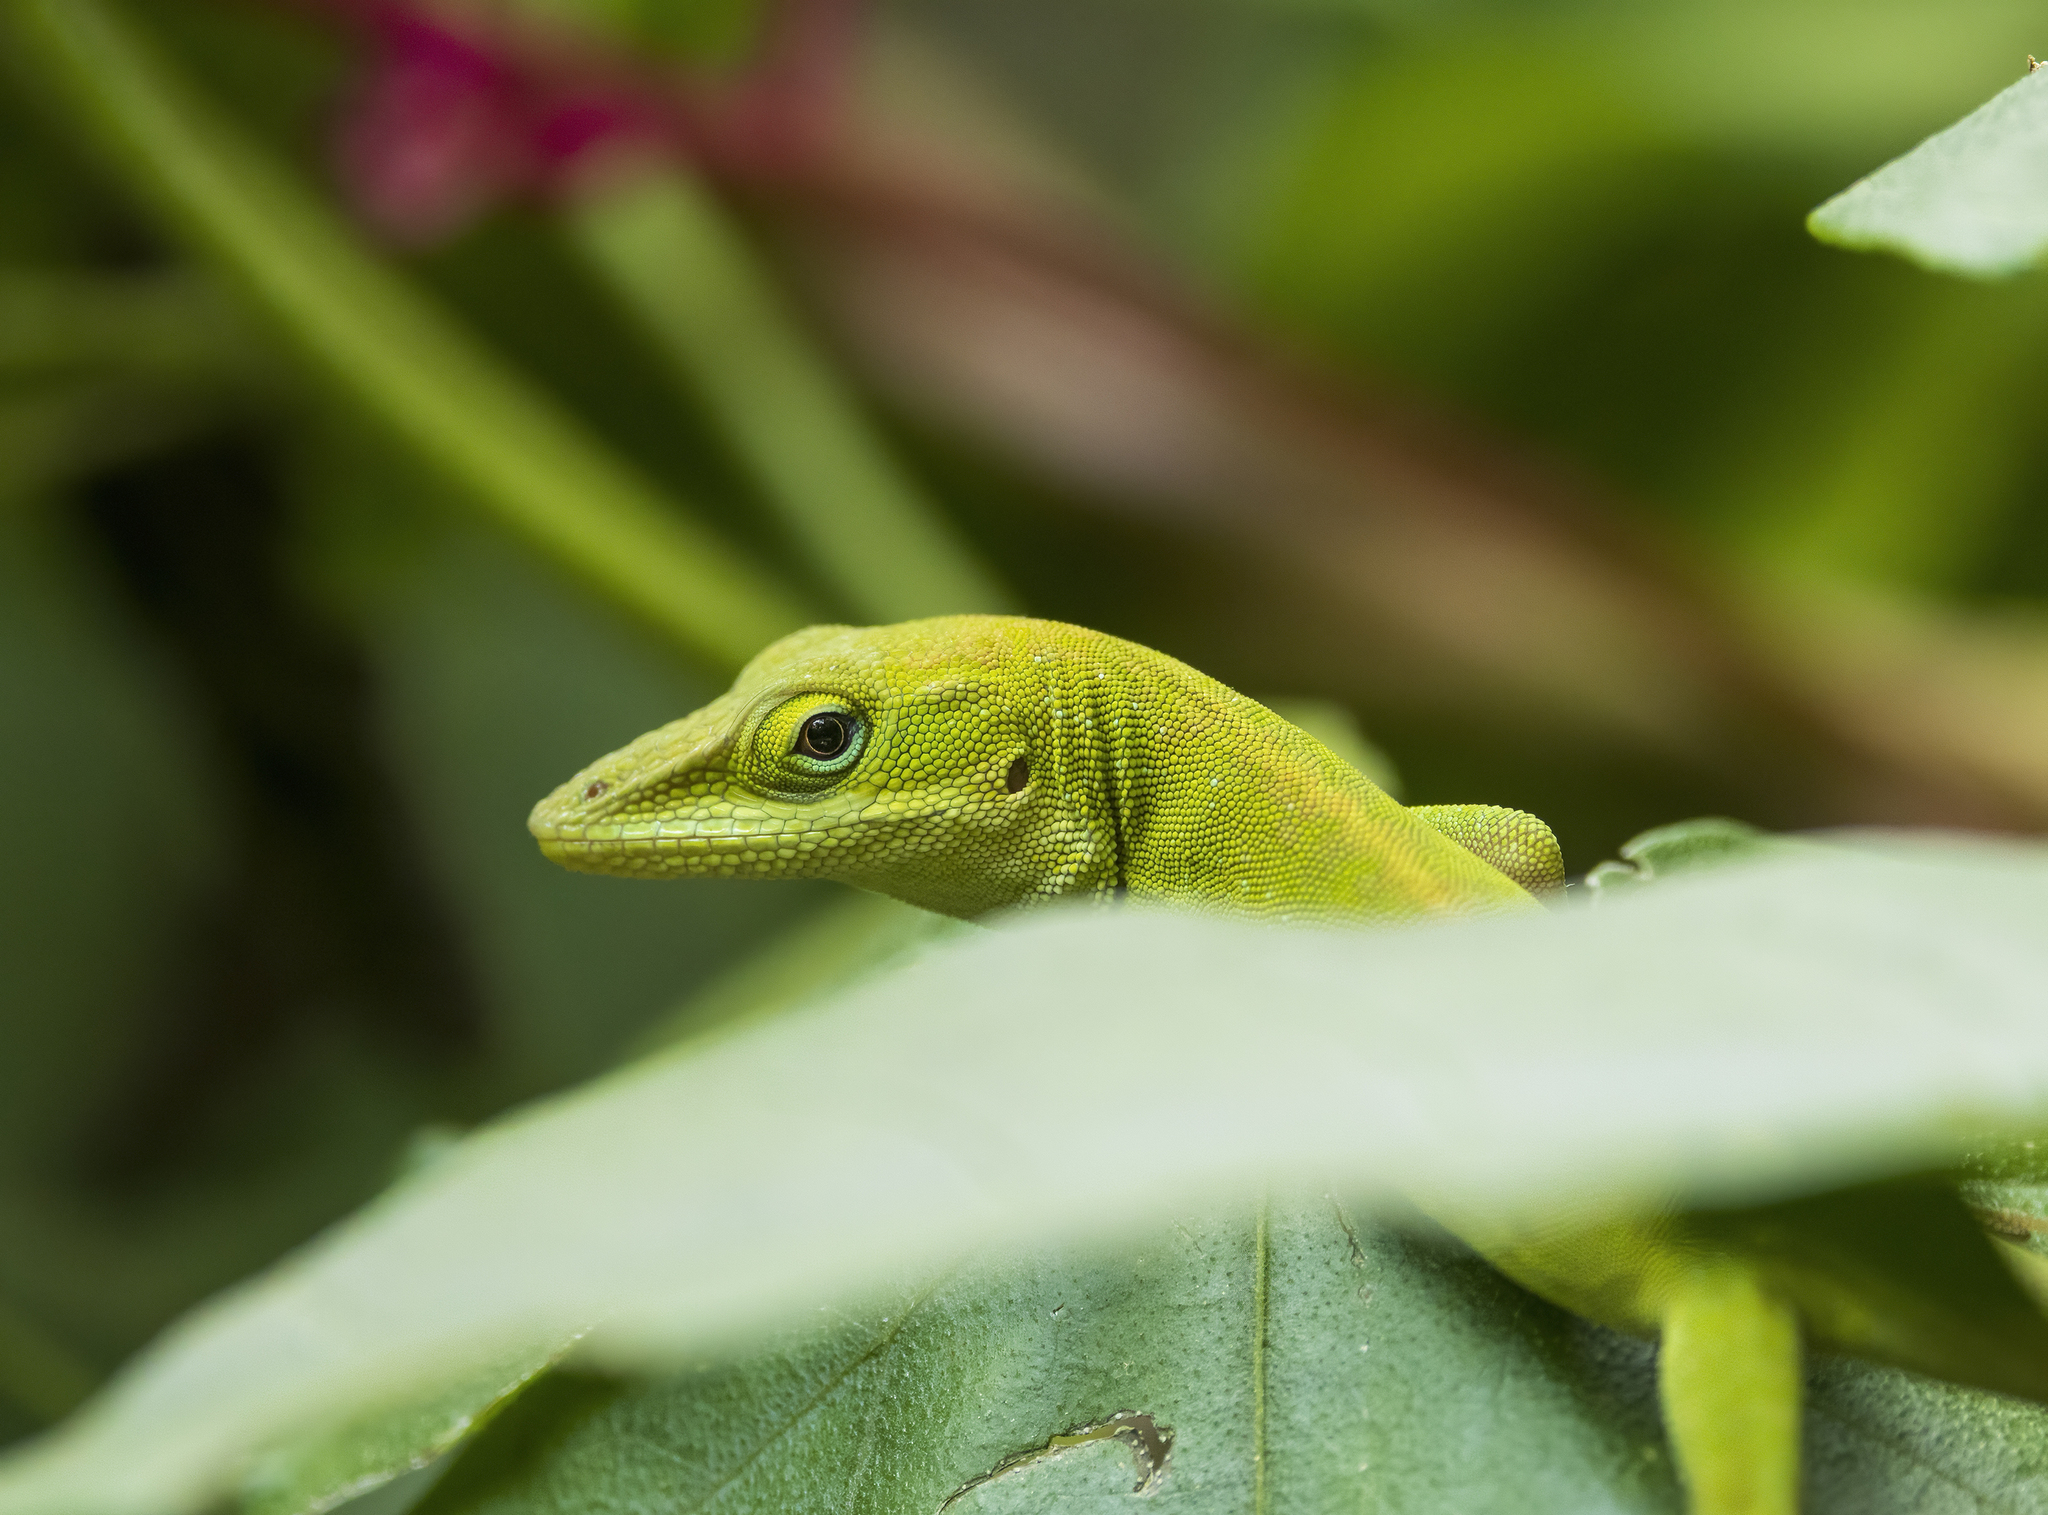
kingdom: Animalia
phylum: Chordata
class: Squamata
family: Dactyloidae
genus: Anolis
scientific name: Anolis carolinensis
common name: Green anole
